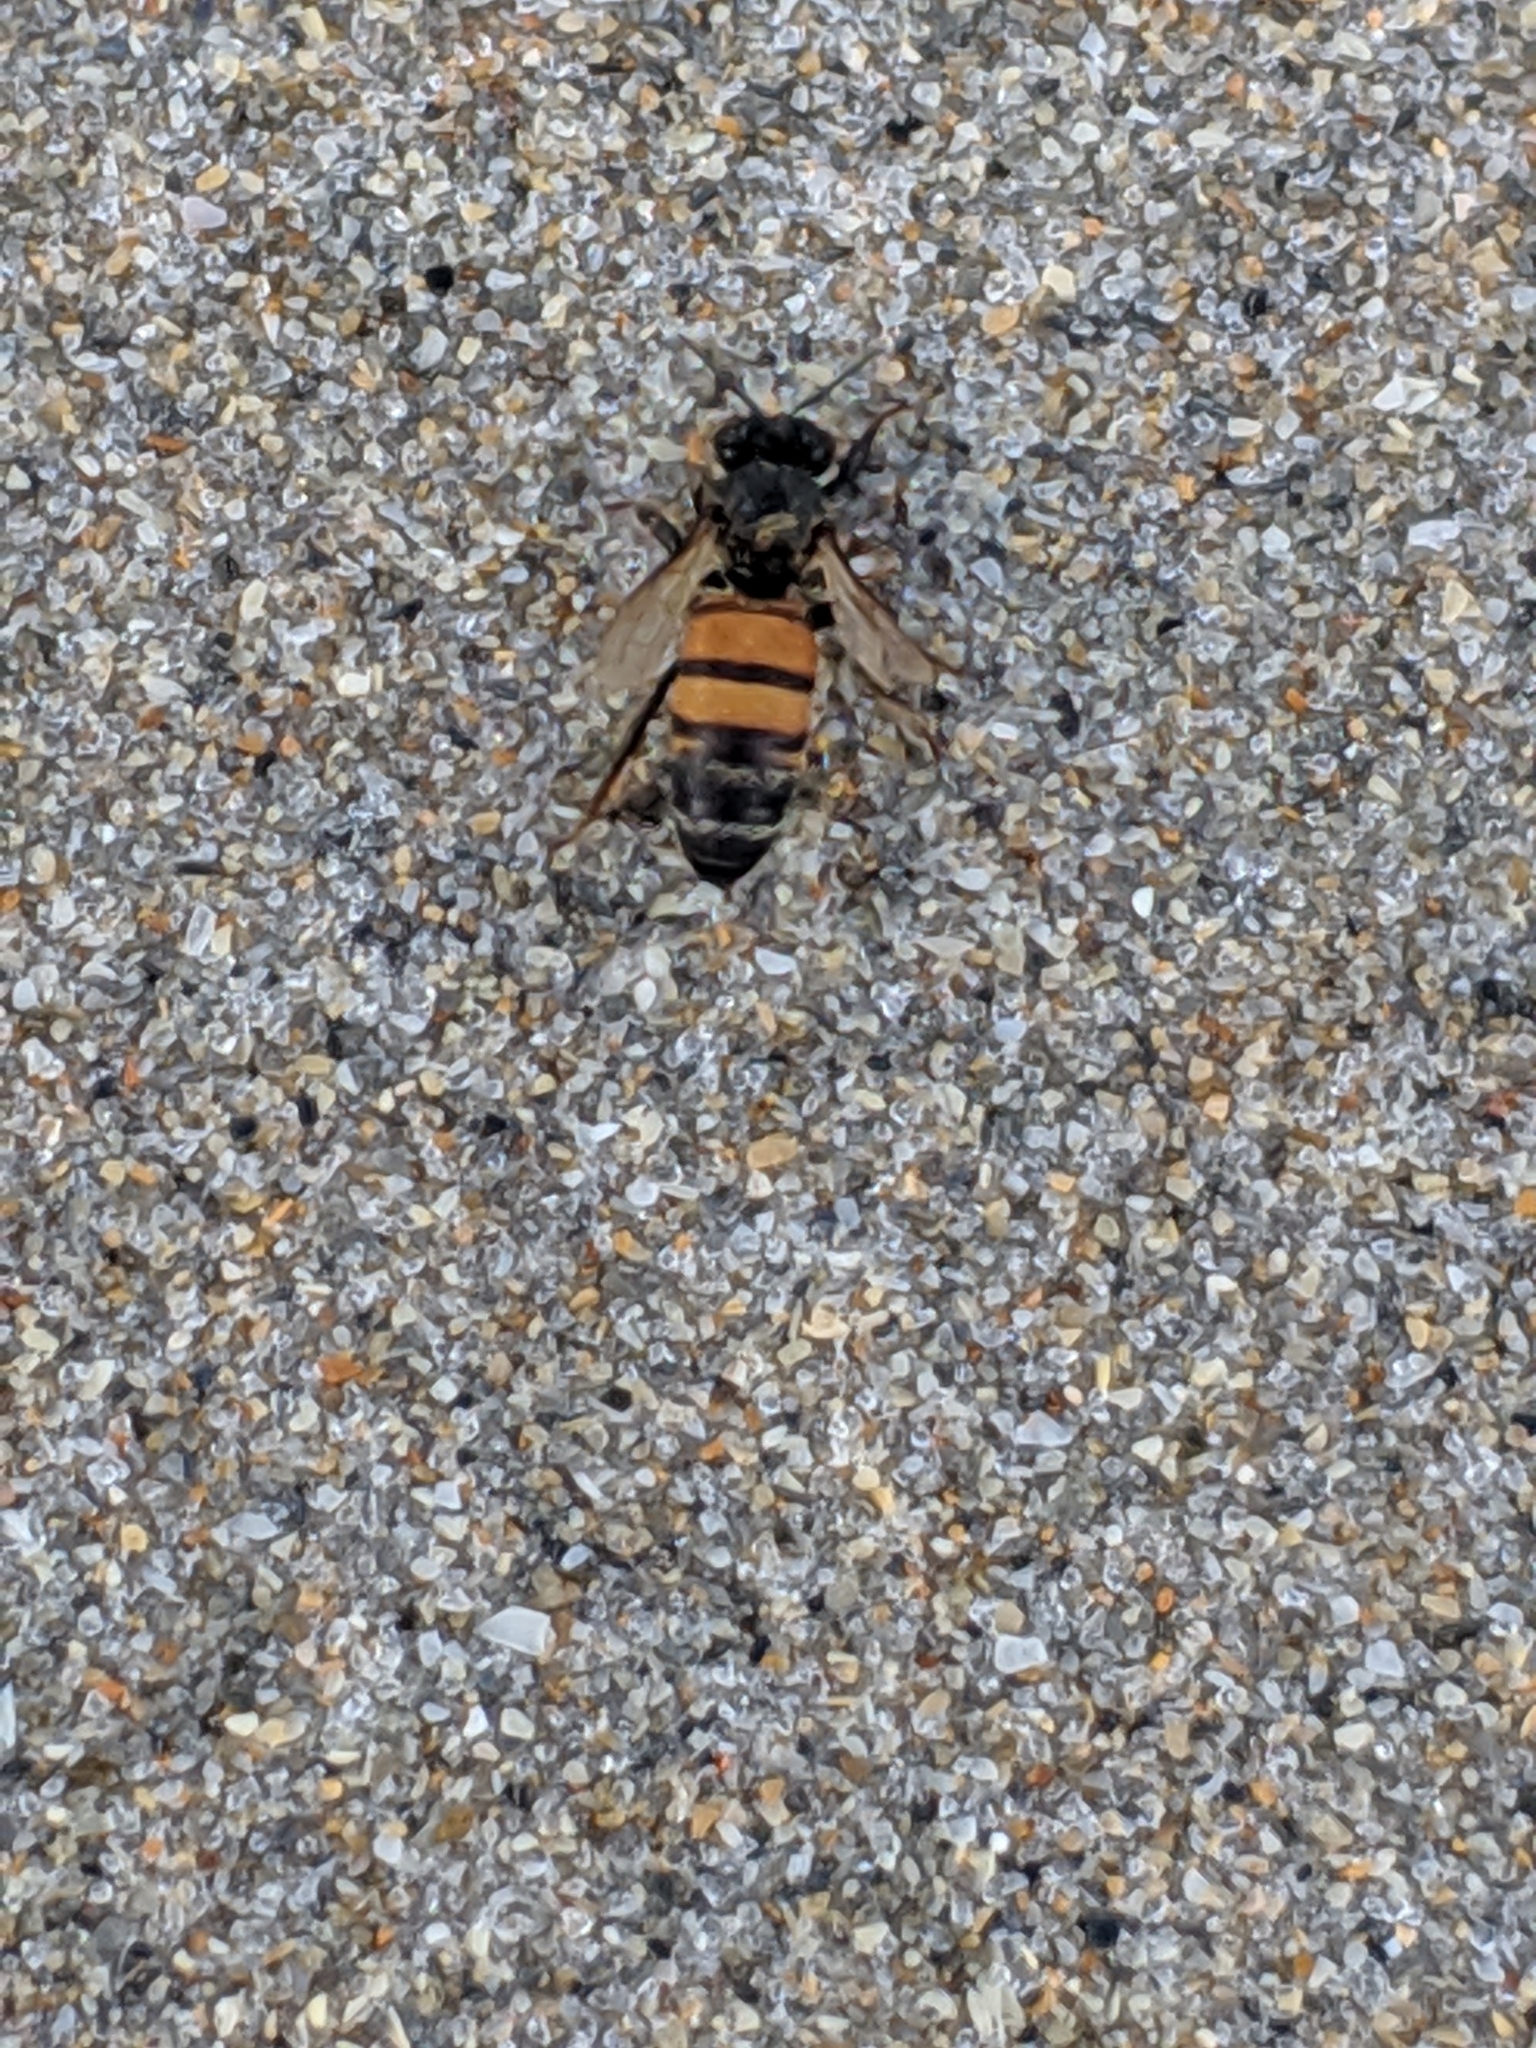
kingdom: Animalia
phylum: Arthropoda
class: Insecta
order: Hymenoptera
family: Apidae
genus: Apis
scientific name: Apis mellifera
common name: Honey bee
